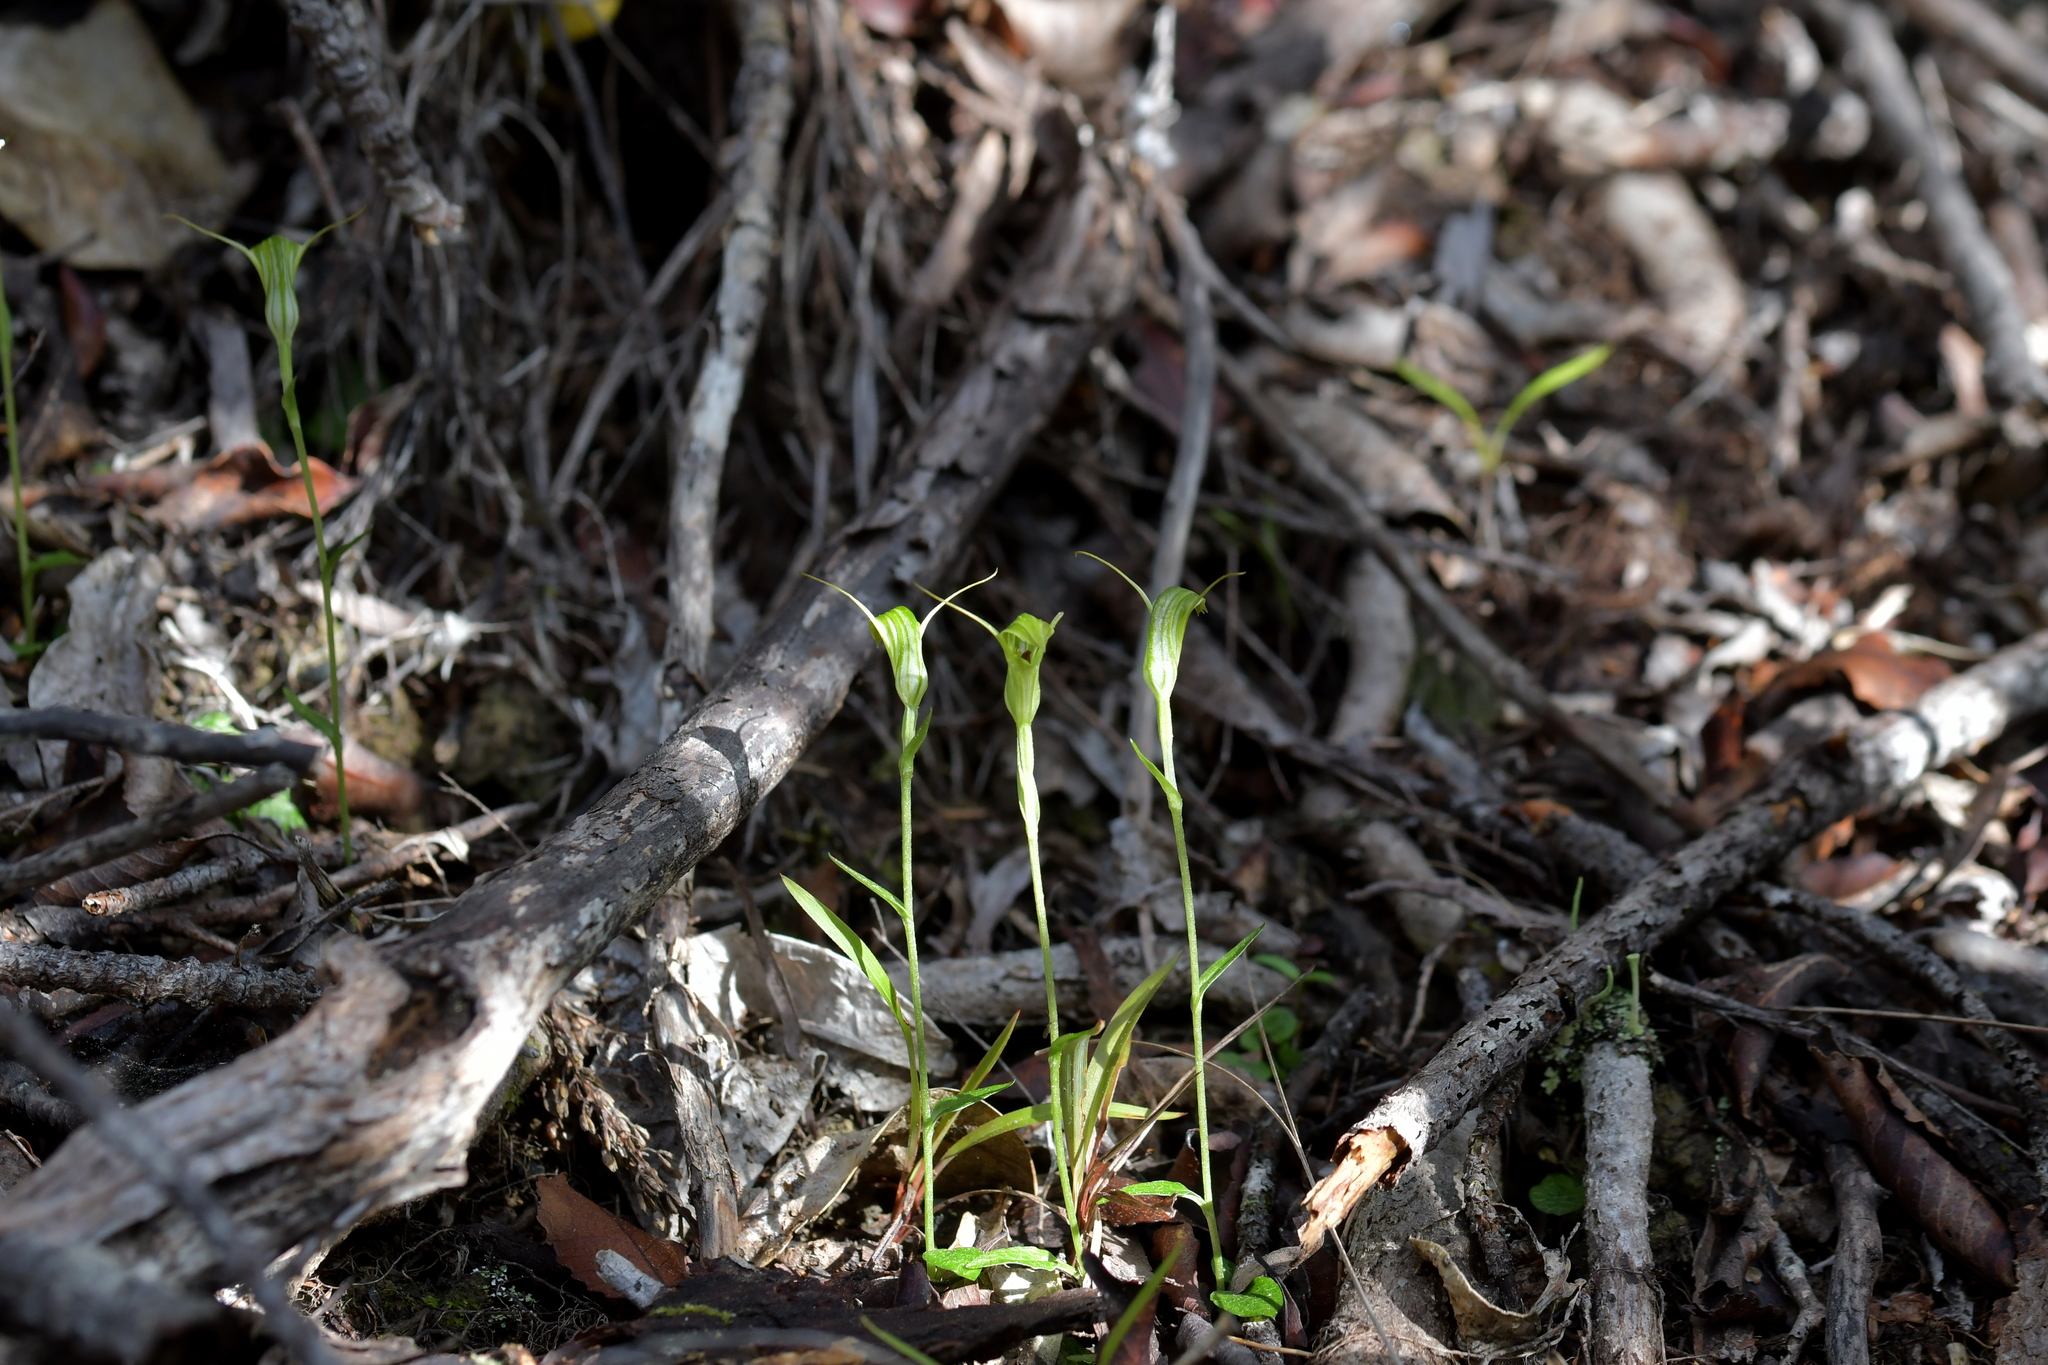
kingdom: Plantae
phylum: Tracheophyta
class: Liliopsida
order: Asparagales
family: Orchidaceae
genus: Pterostylis
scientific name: Pterostylis trullifolia
